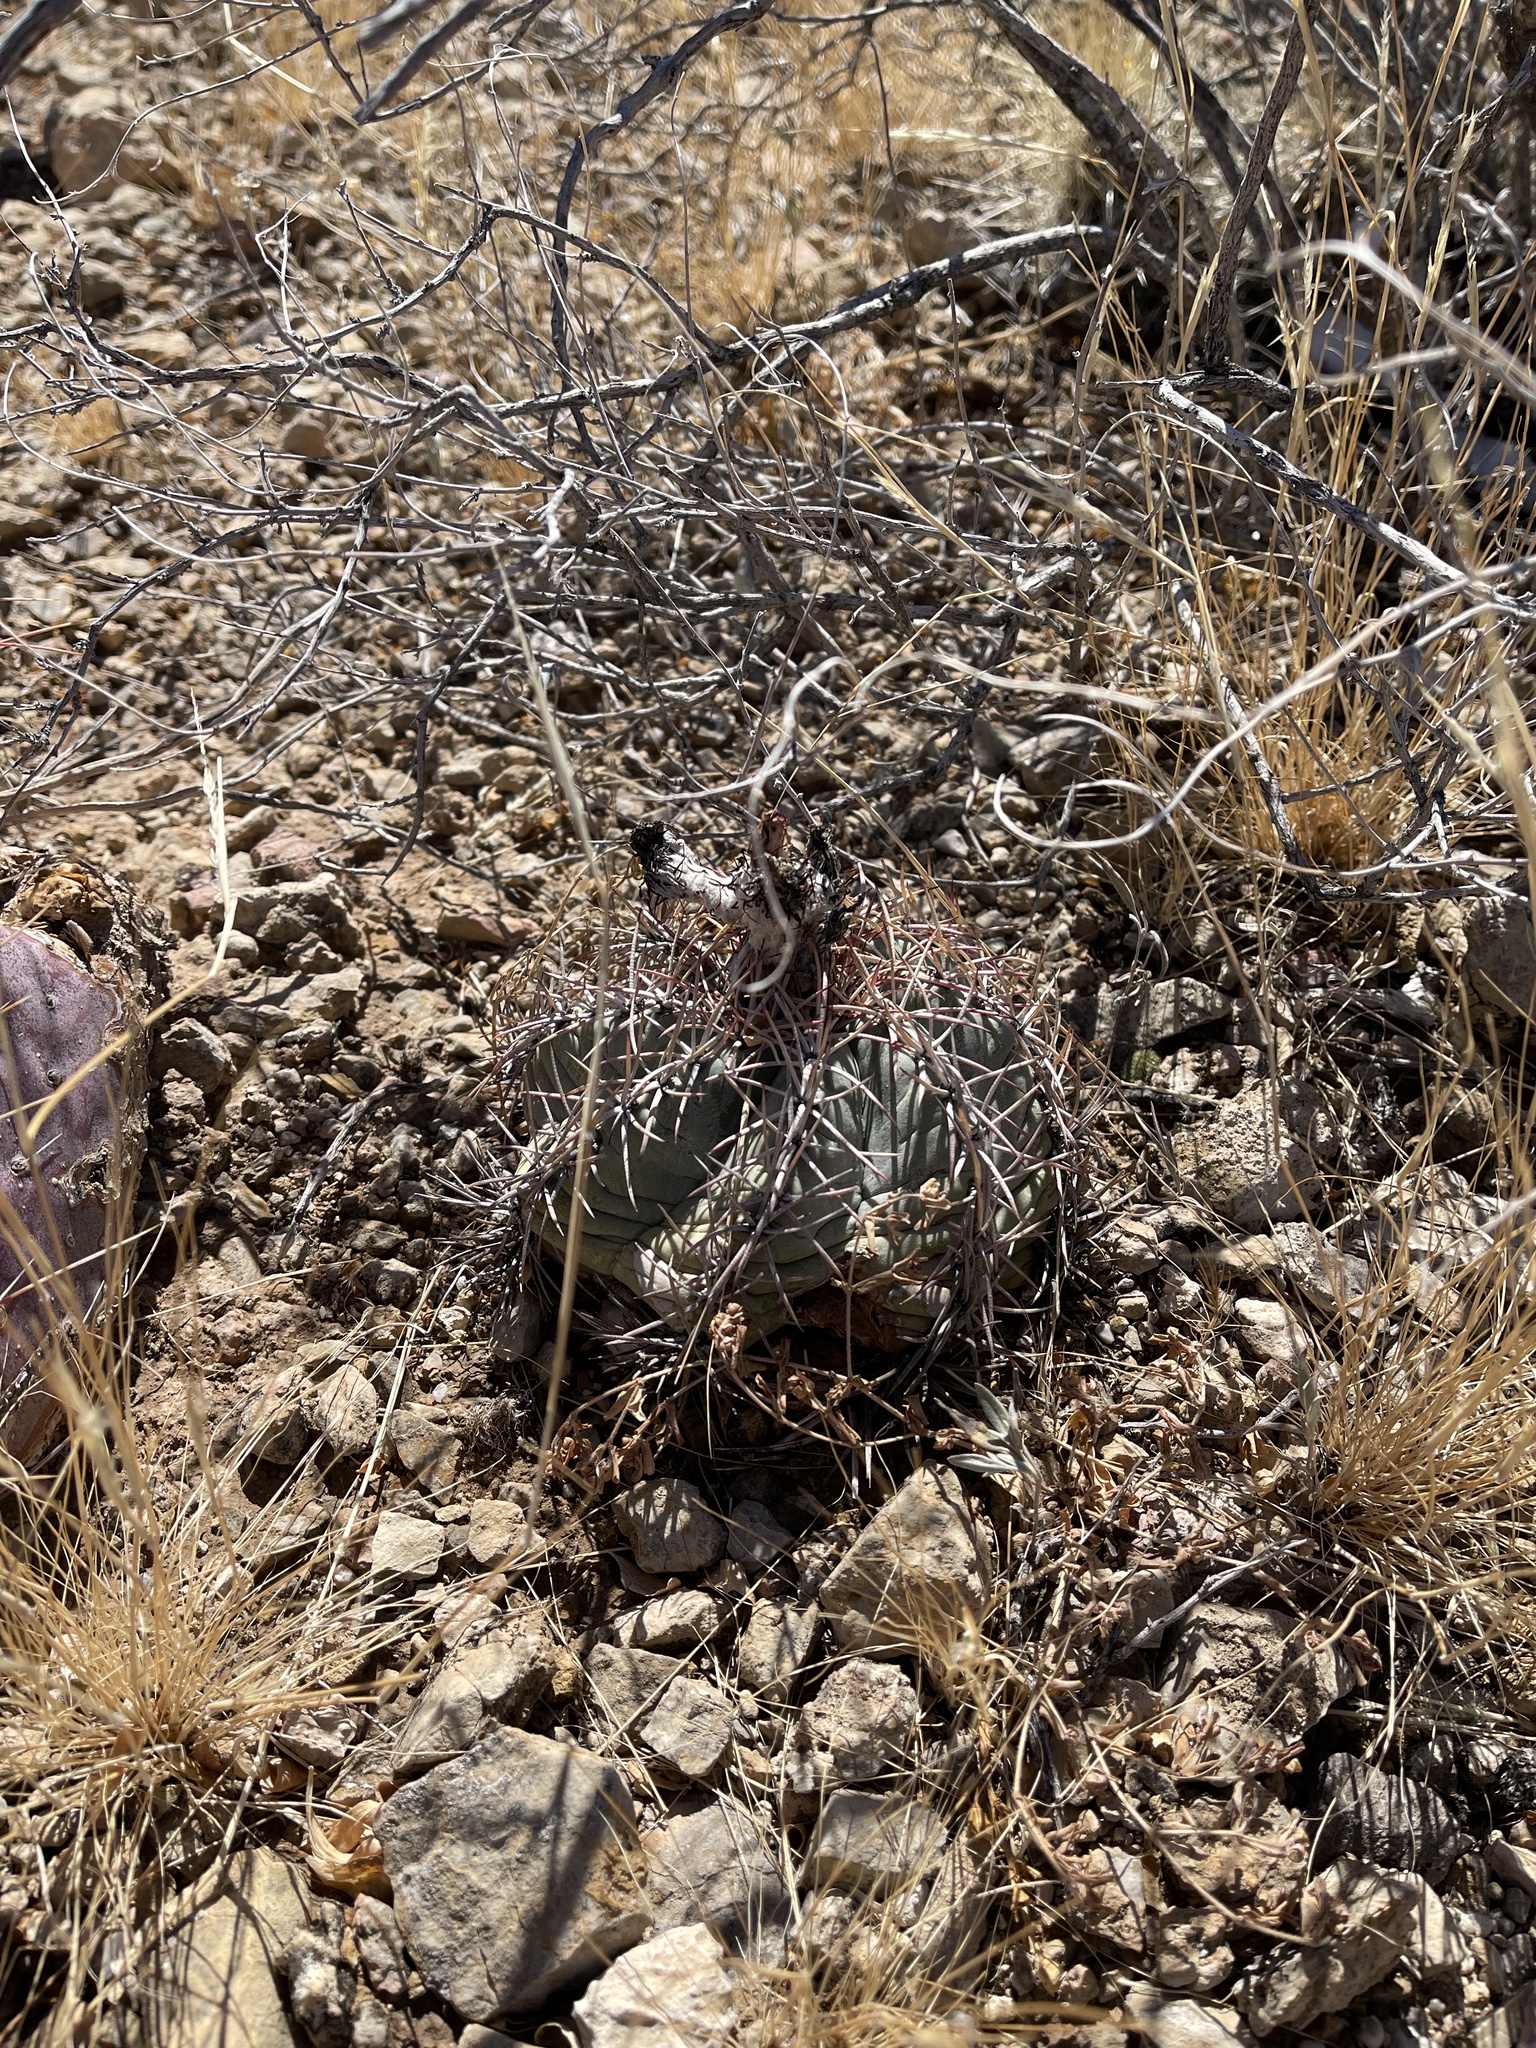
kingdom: Plantae
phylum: Tracheophyta
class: Magnoliopsida
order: Caryophyllales
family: Cactaceae
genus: Echinocactus
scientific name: Echinocactus horizonthalonius
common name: Devilshead
